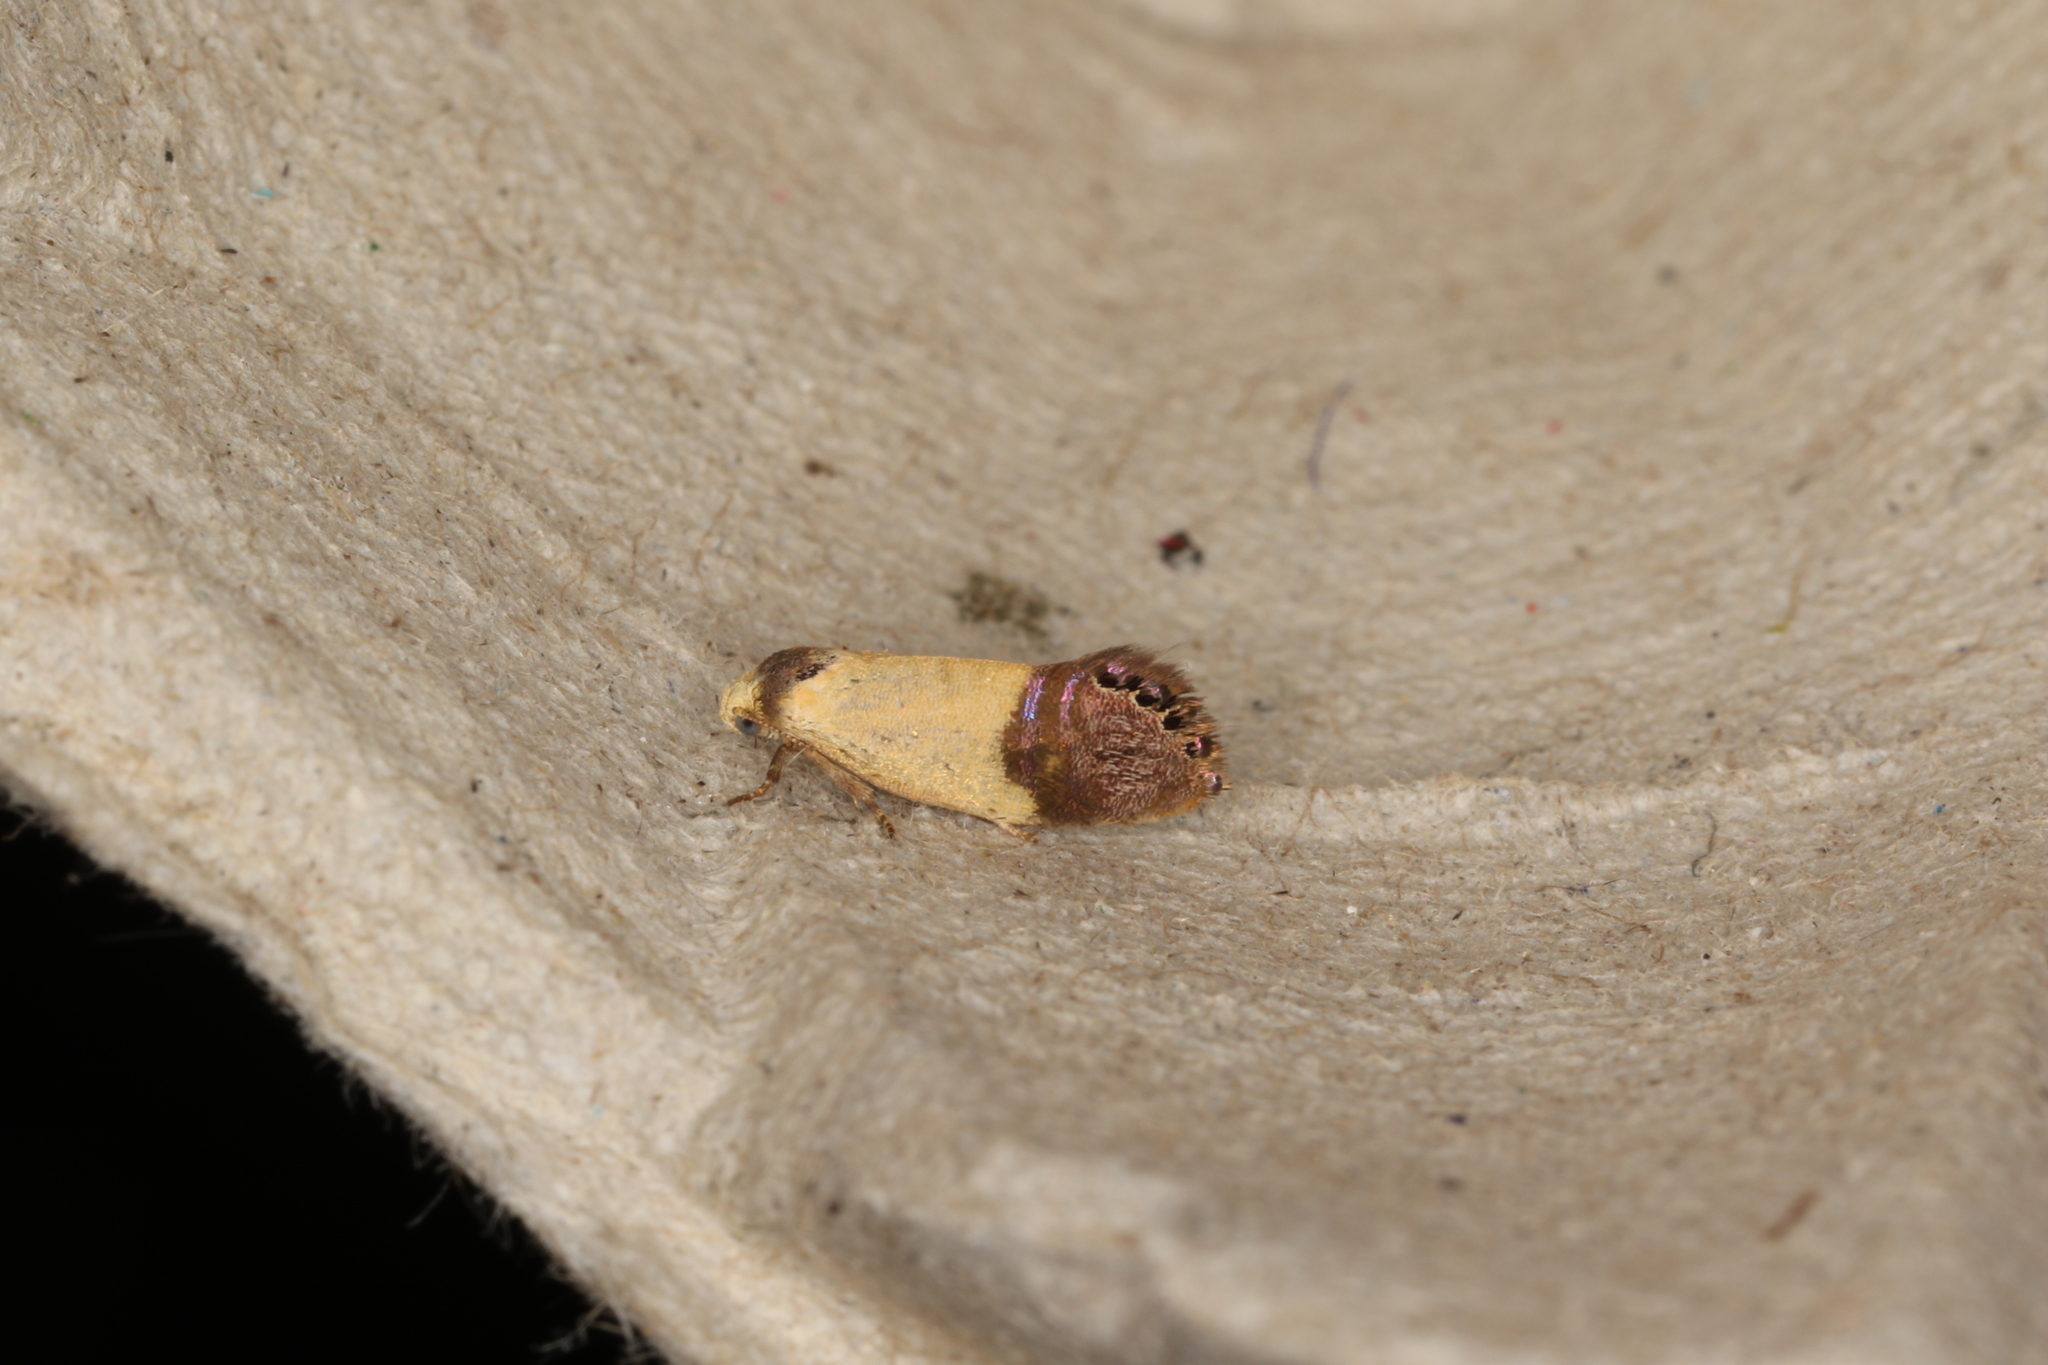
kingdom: Animalia
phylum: Arthropoda
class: Insecta
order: Lepidoptera
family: Depressariidae
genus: Eupselia
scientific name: Eupselia satrapella
